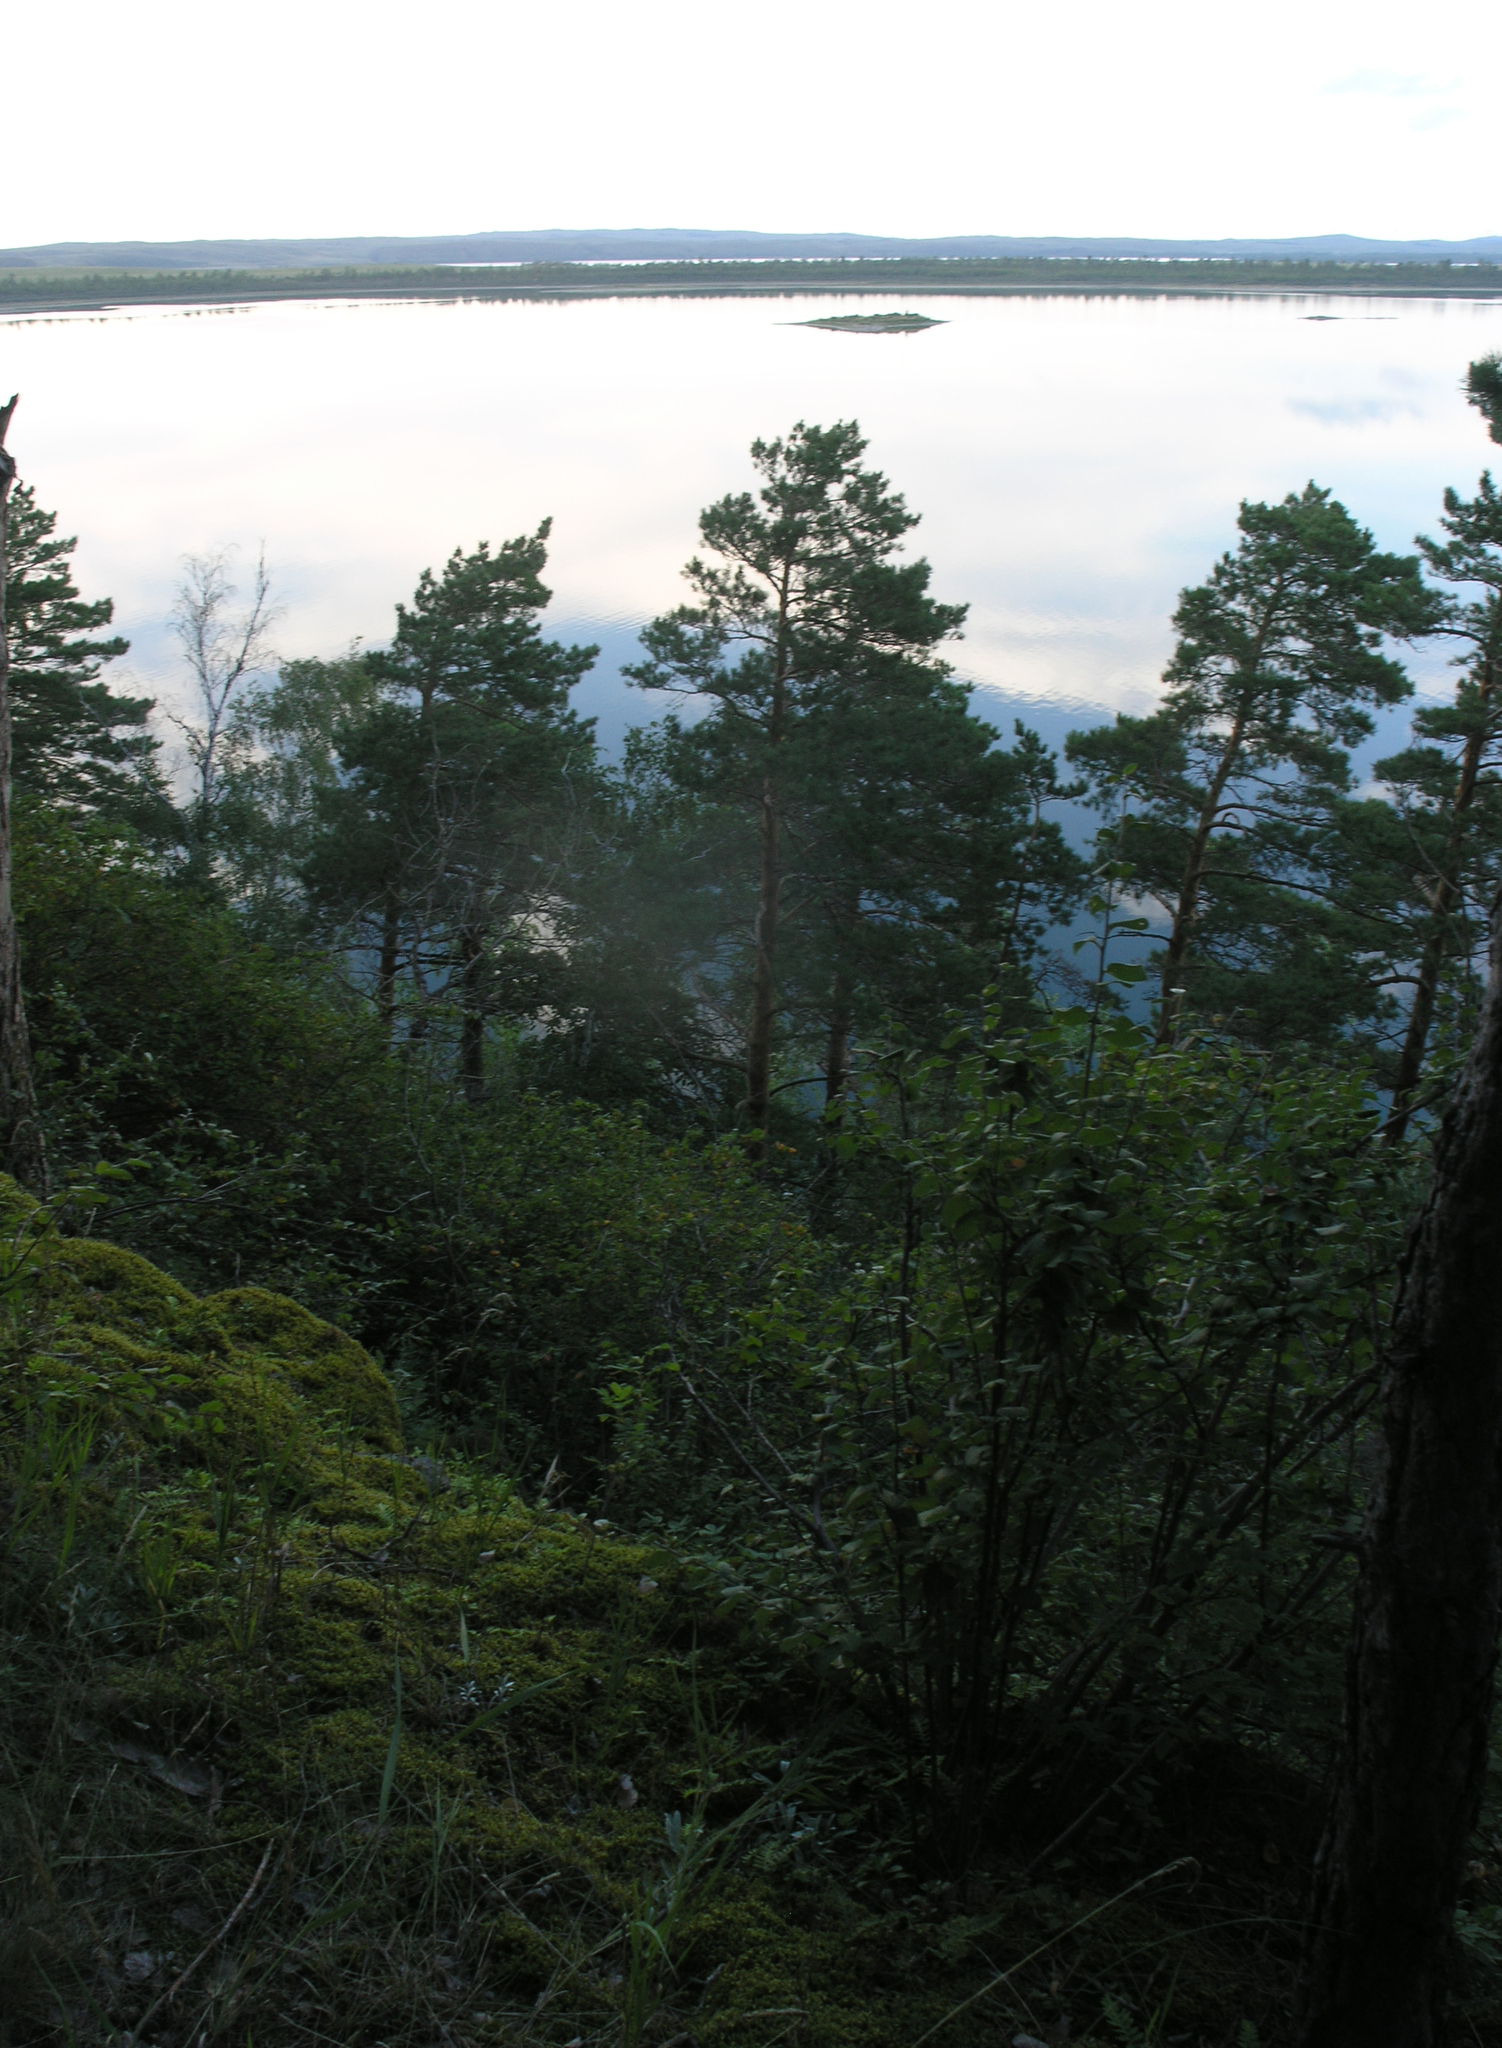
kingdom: Plantae
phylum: Tracheophyta
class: Pinopsida
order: Pinales
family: Pinaceae
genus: Pinus
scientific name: Pinus sylvestris
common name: Scots pine
